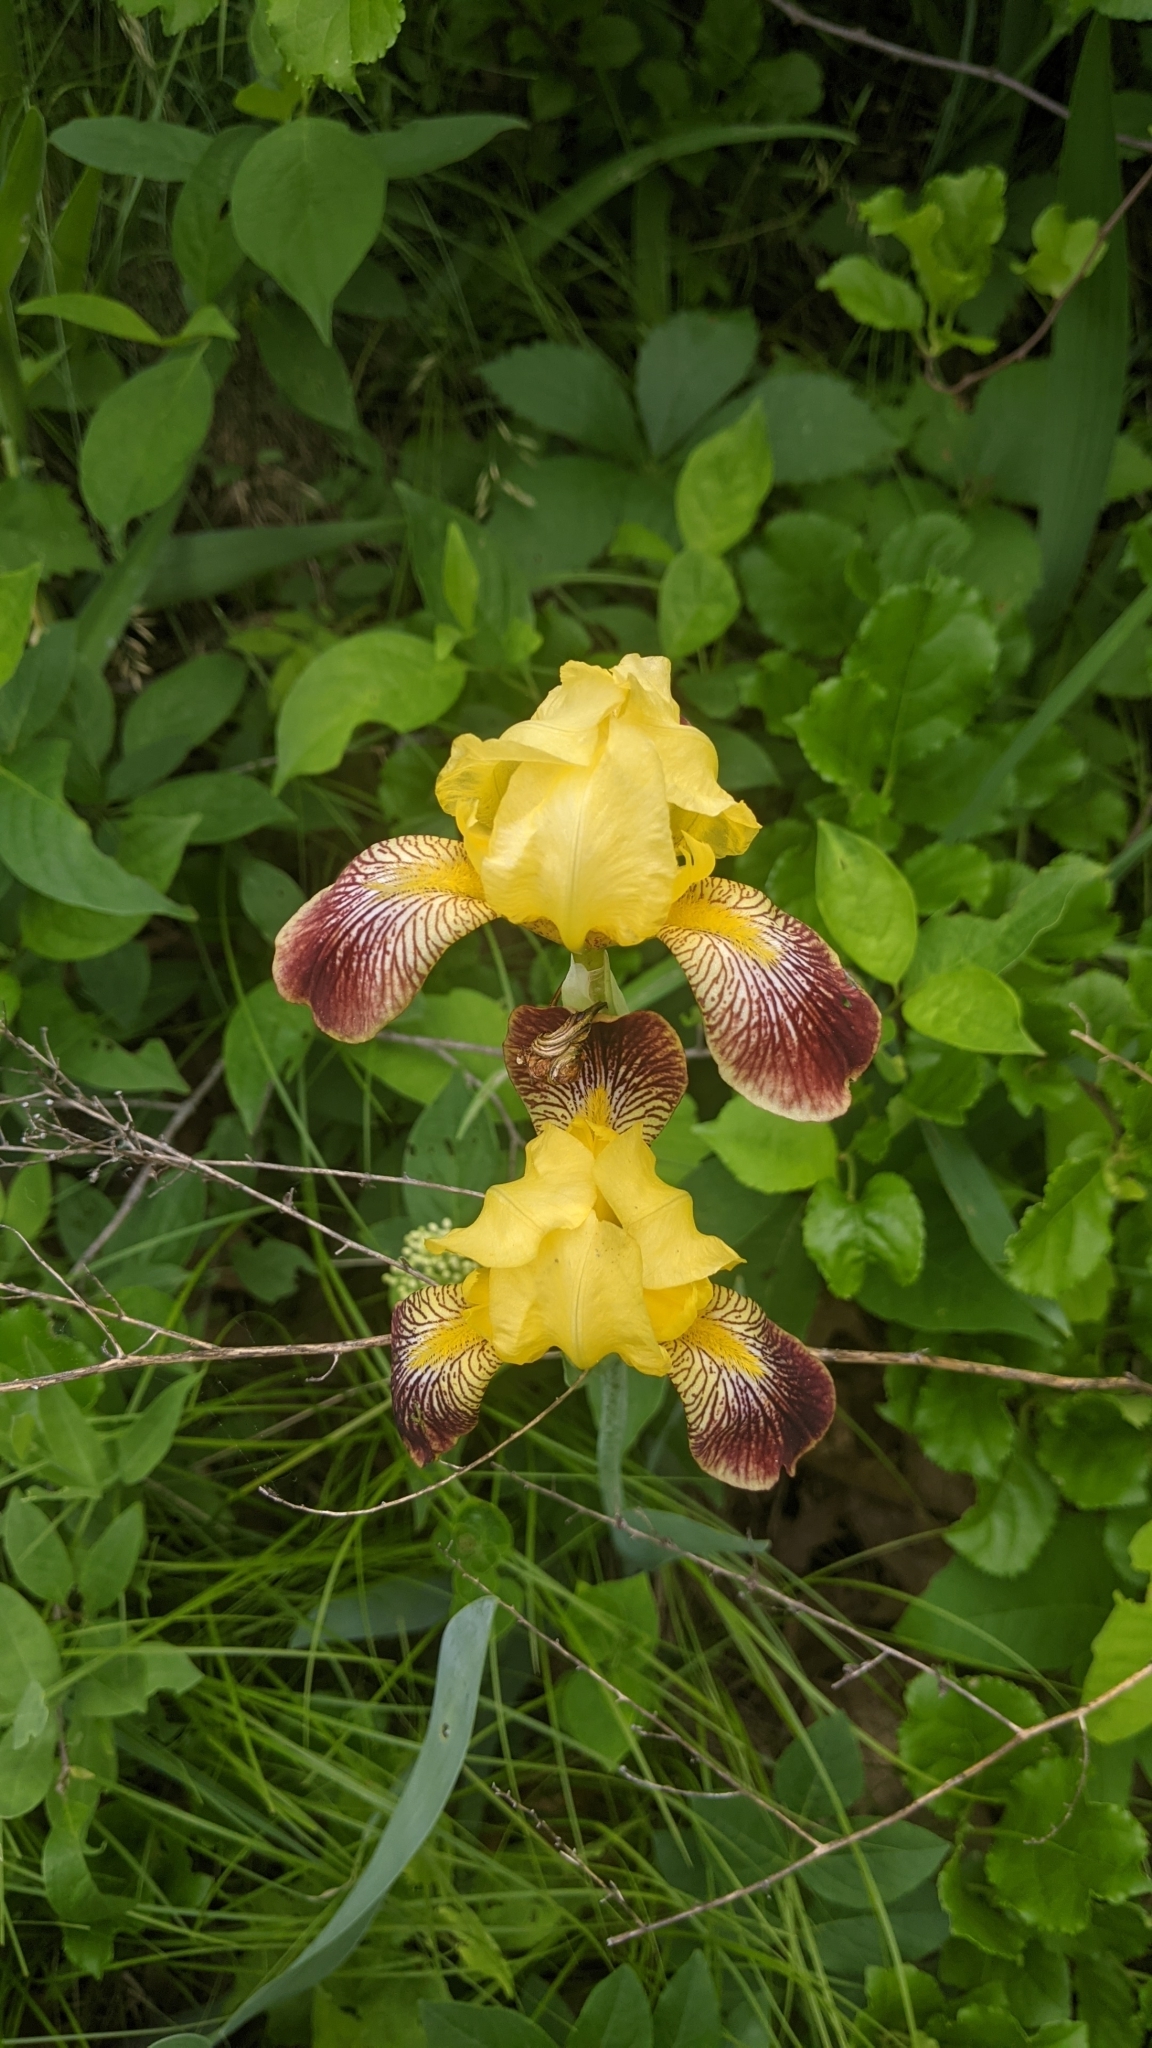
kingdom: Plantae
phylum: Tracheophyta
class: Liliopsida
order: Asparagales
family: Iridaceae
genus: Iris
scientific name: Iris hybrida
